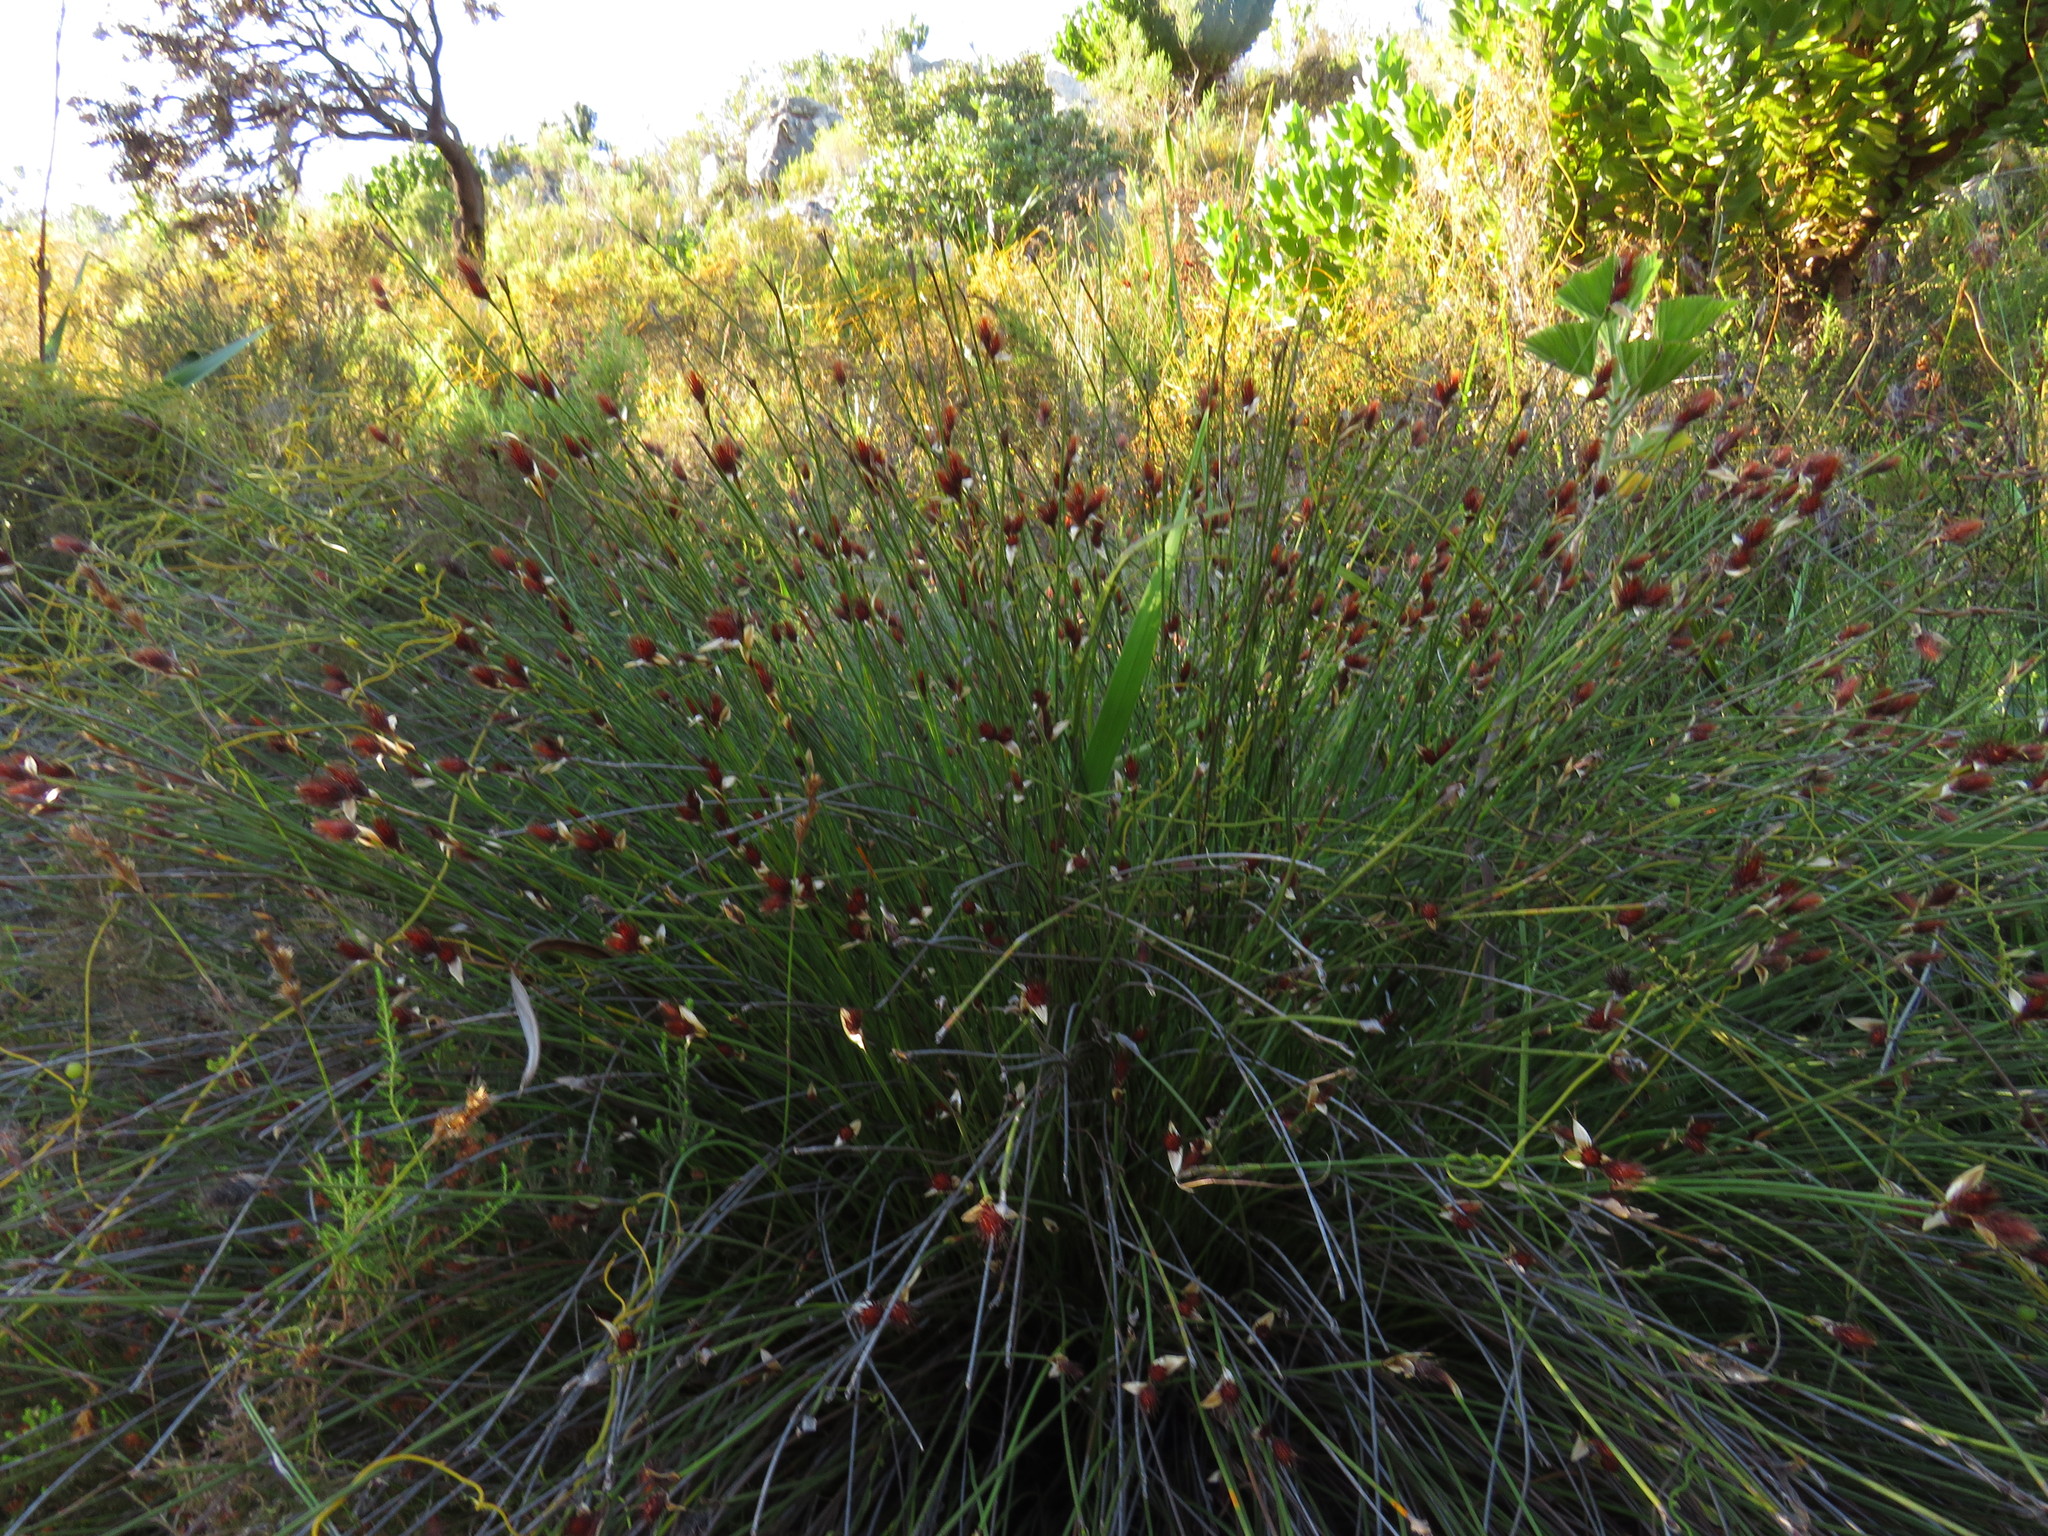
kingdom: Plantae
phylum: Tracheophyta
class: Liliopsida
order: Poales
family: Restionaceae
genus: Hypodiscus
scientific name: Hypodiscus aristatus
